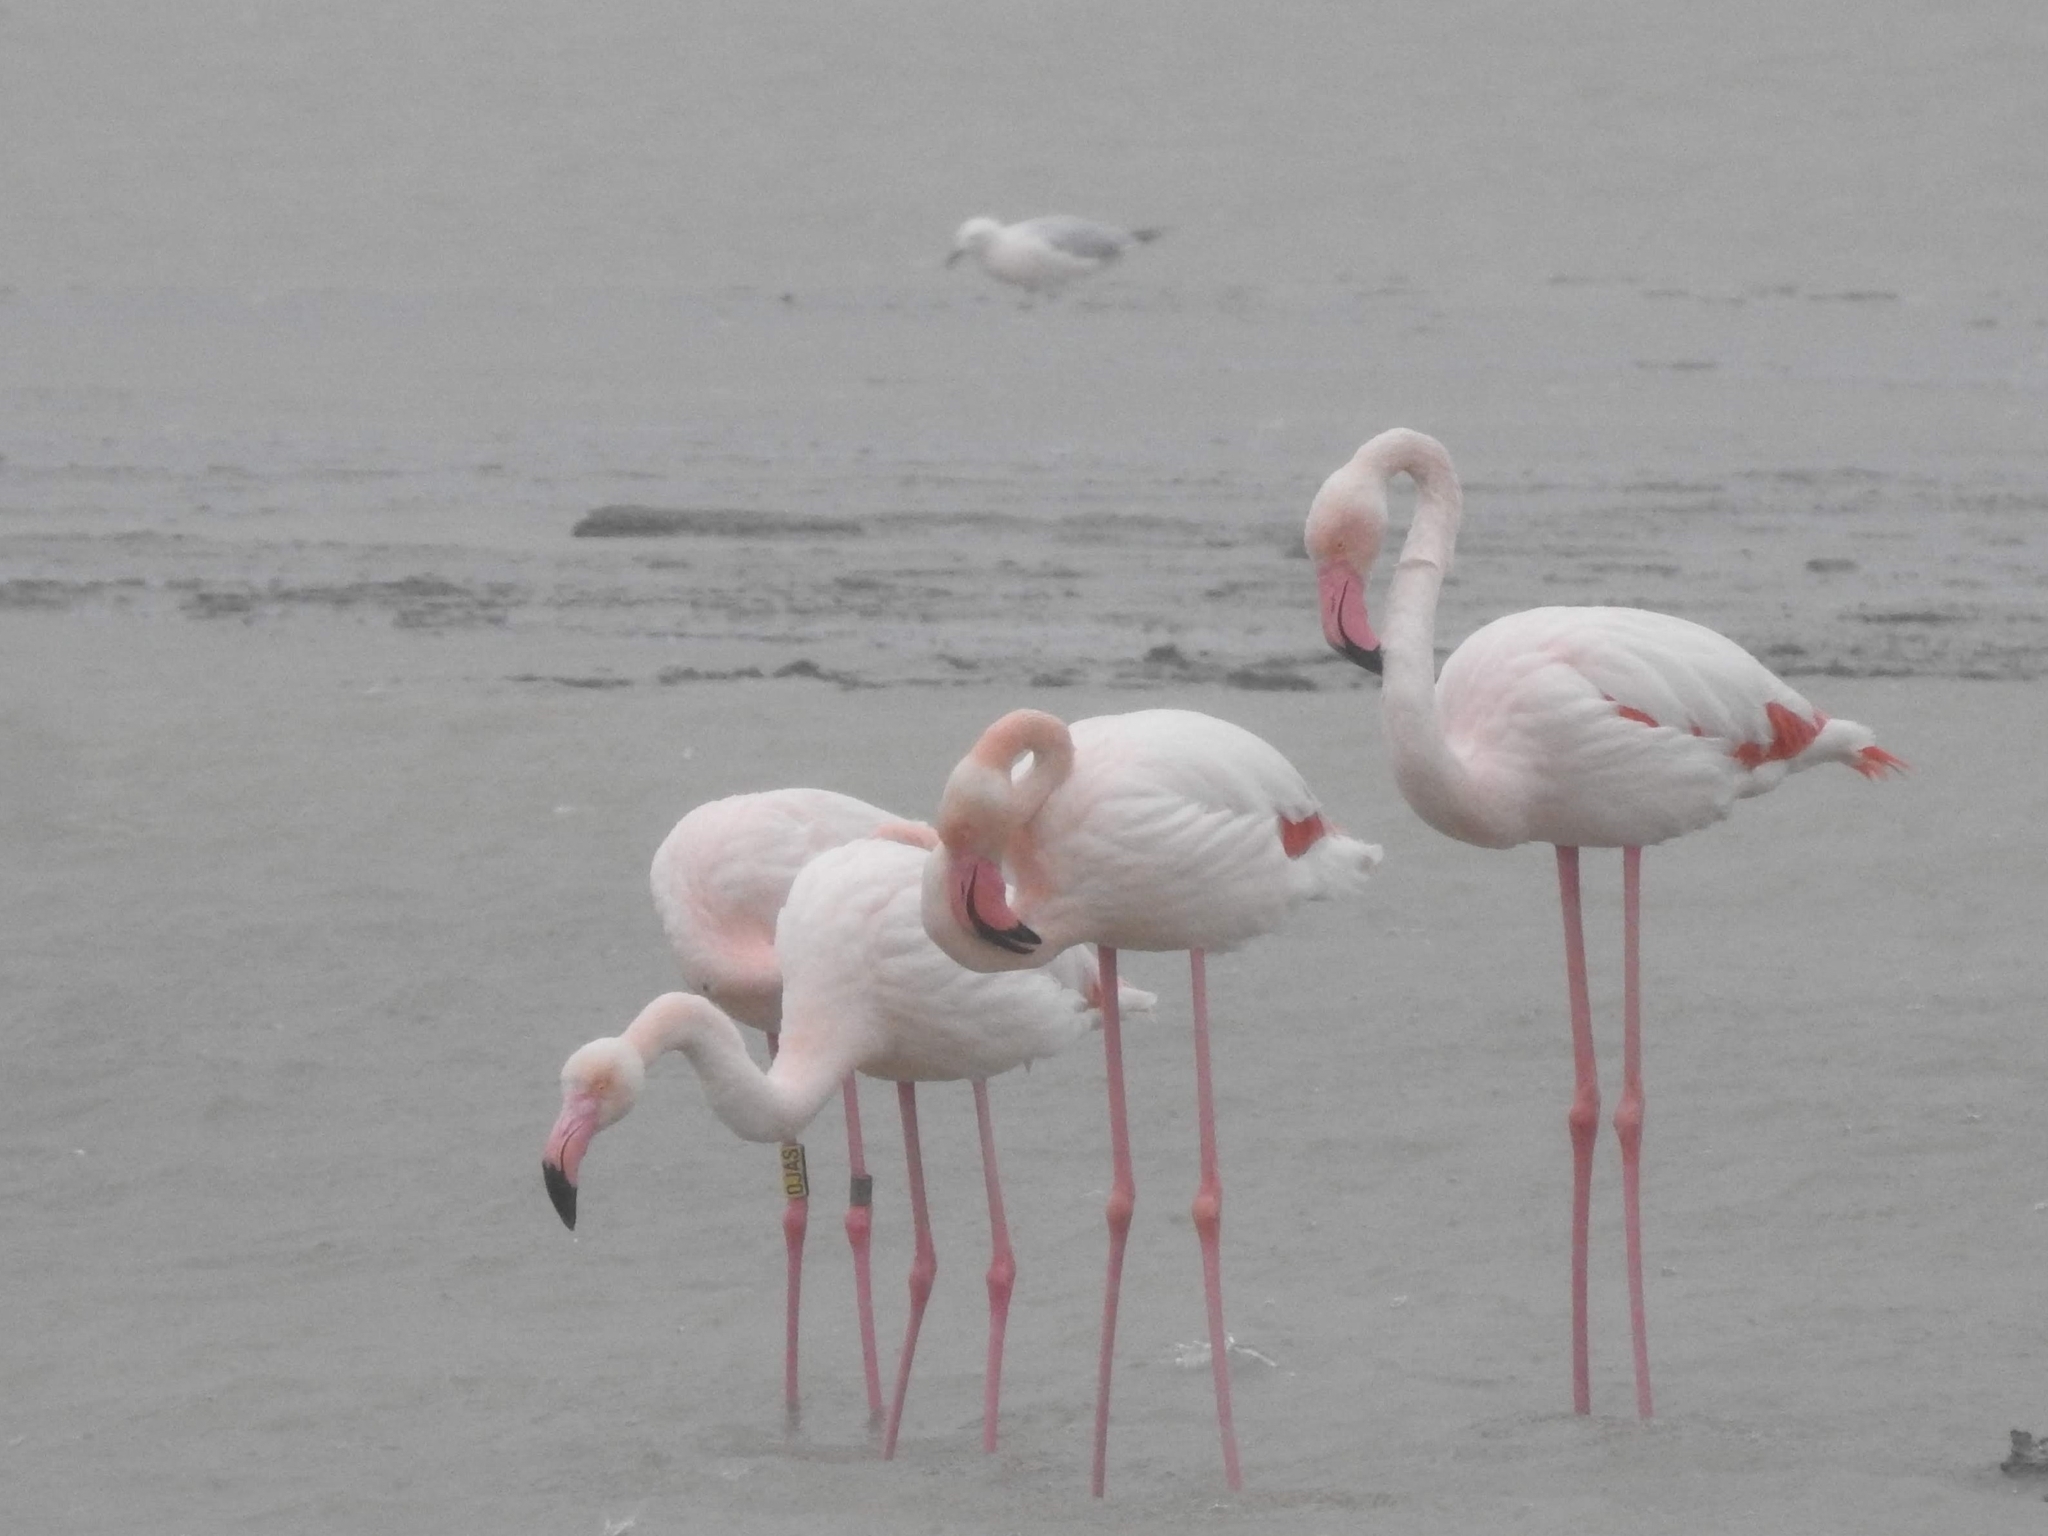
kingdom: Animalia
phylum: Chordata
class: Aves
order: Phoenicopteriformes
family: Phoenicopteridae
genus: Phoenicopterus
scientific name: Phoenicopterus roseus
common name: Greater flamingo
